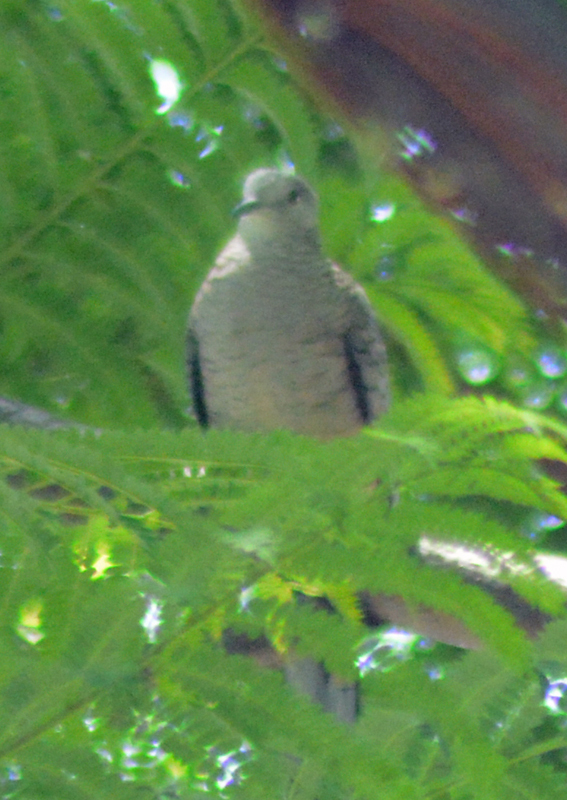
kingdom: Animalia
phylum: Chordata
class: Aves
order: Columbiformes
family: Columbidae
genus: Columbina
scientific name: Columbina inca
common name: Inca dove
